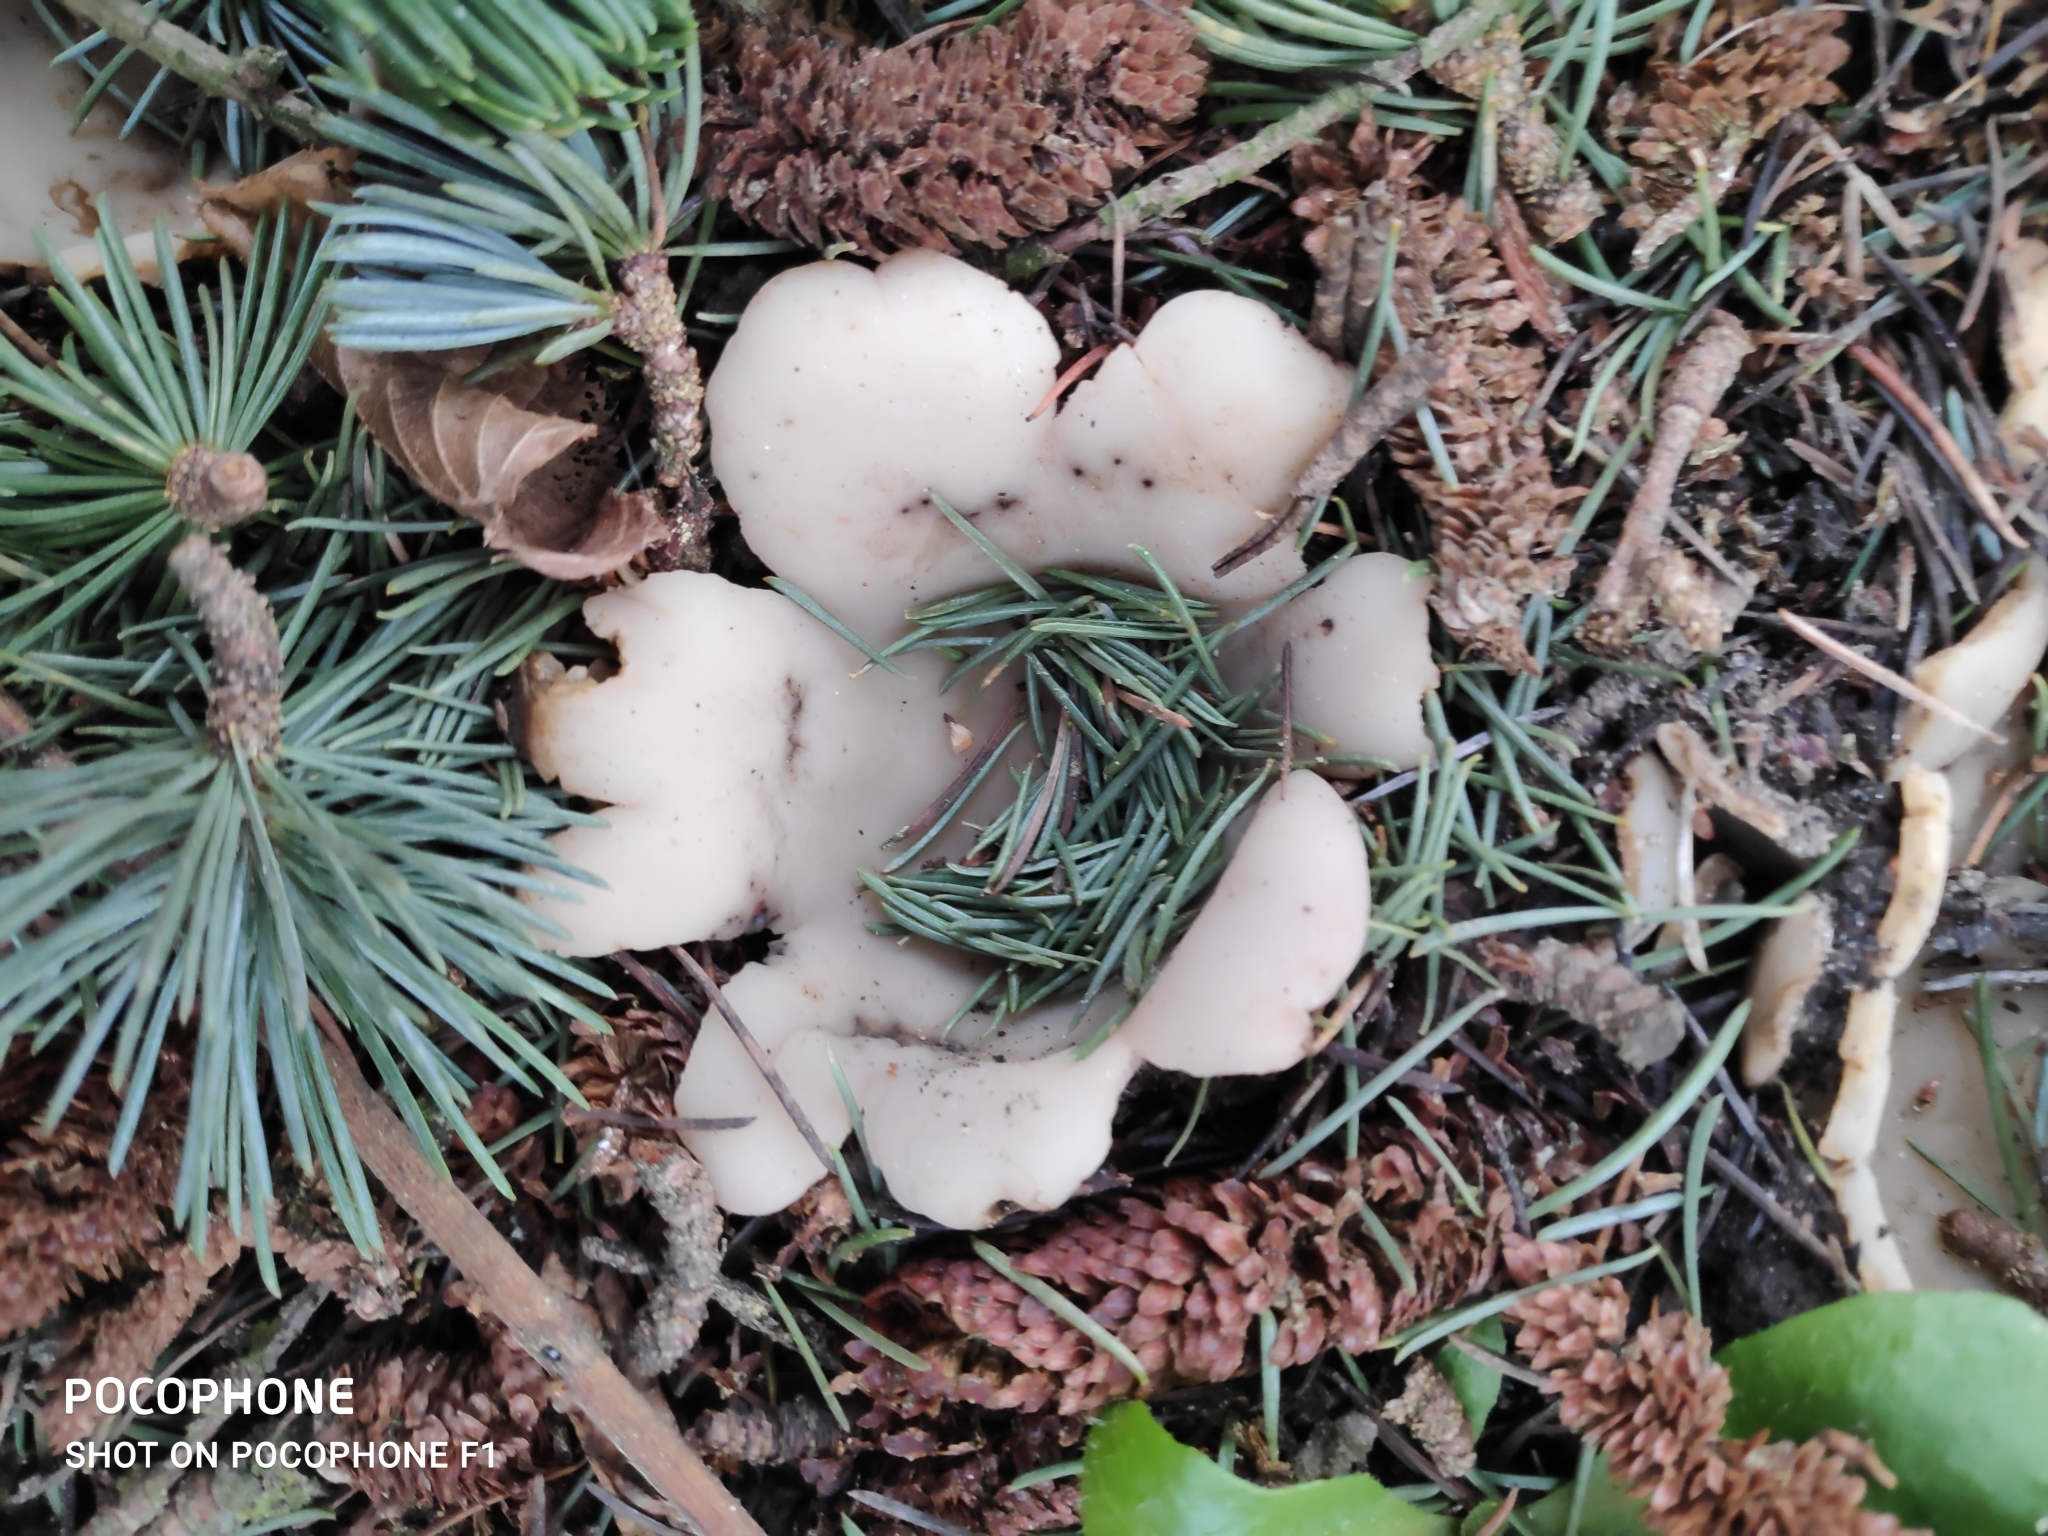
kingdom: Fungi
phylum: Ascomycota
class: Pezizomycetes
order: Pezizales
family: Pyronemataceae
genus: Geopora
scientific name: Geopora sumneriana
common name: Cedar cup
